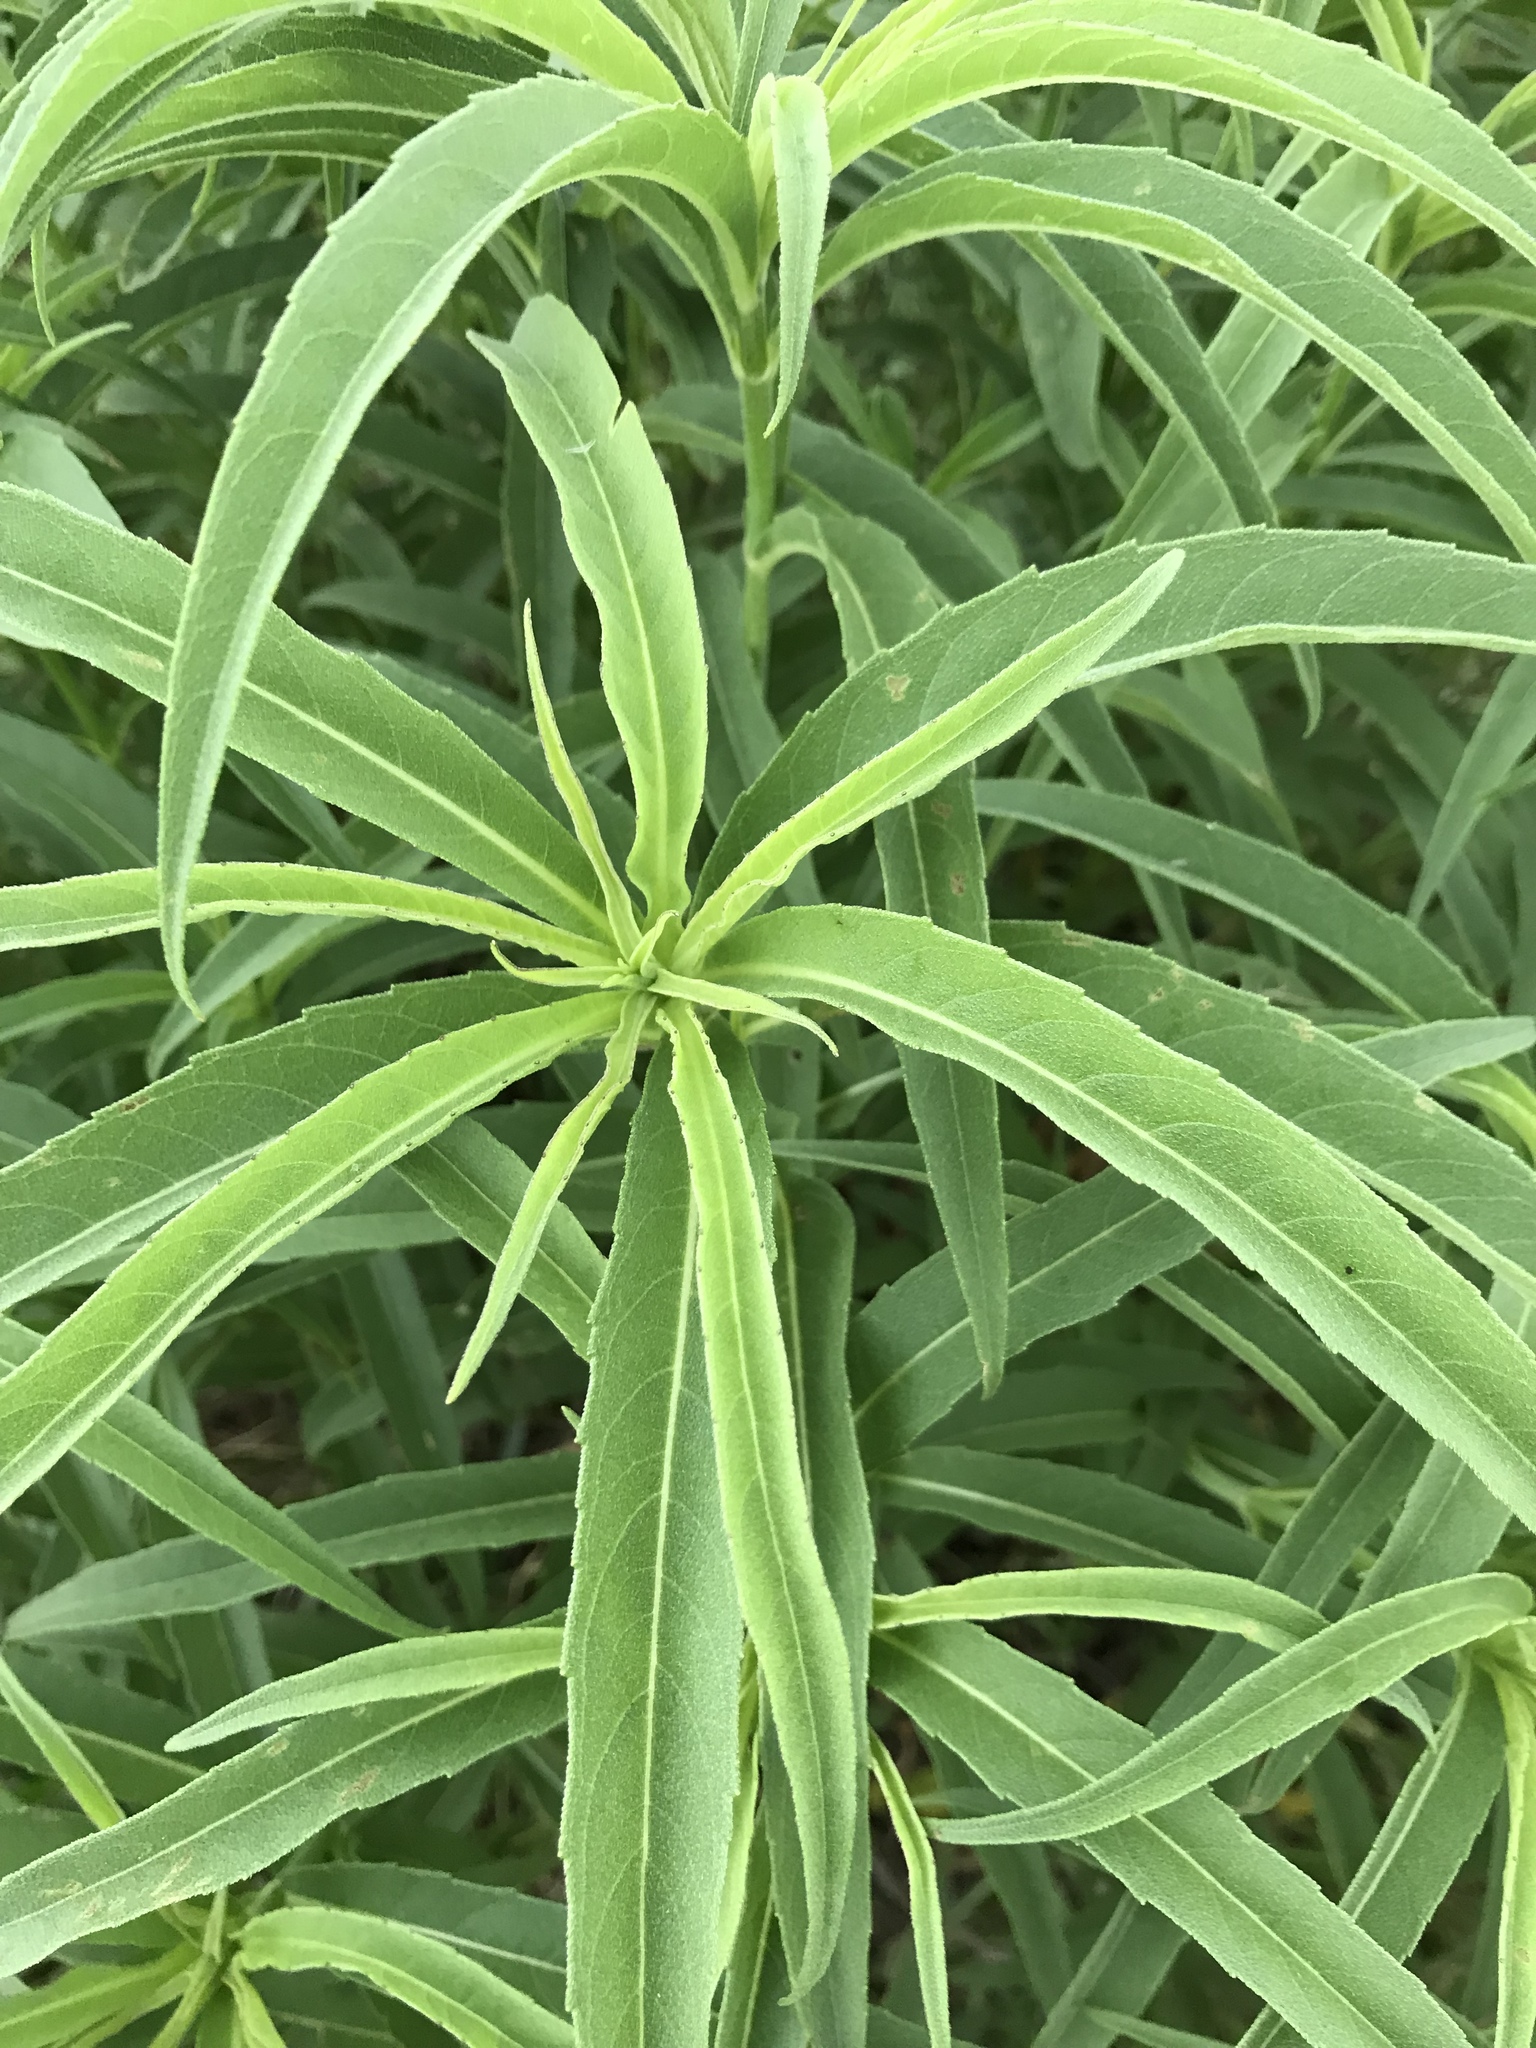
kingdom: Plantae
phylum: Tracheophyta
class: Magnoliopsida
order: Asterales
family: Asteraceae
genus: Helianthus
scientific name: Helianthus maximiliani
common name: Maximilian's sunflower
